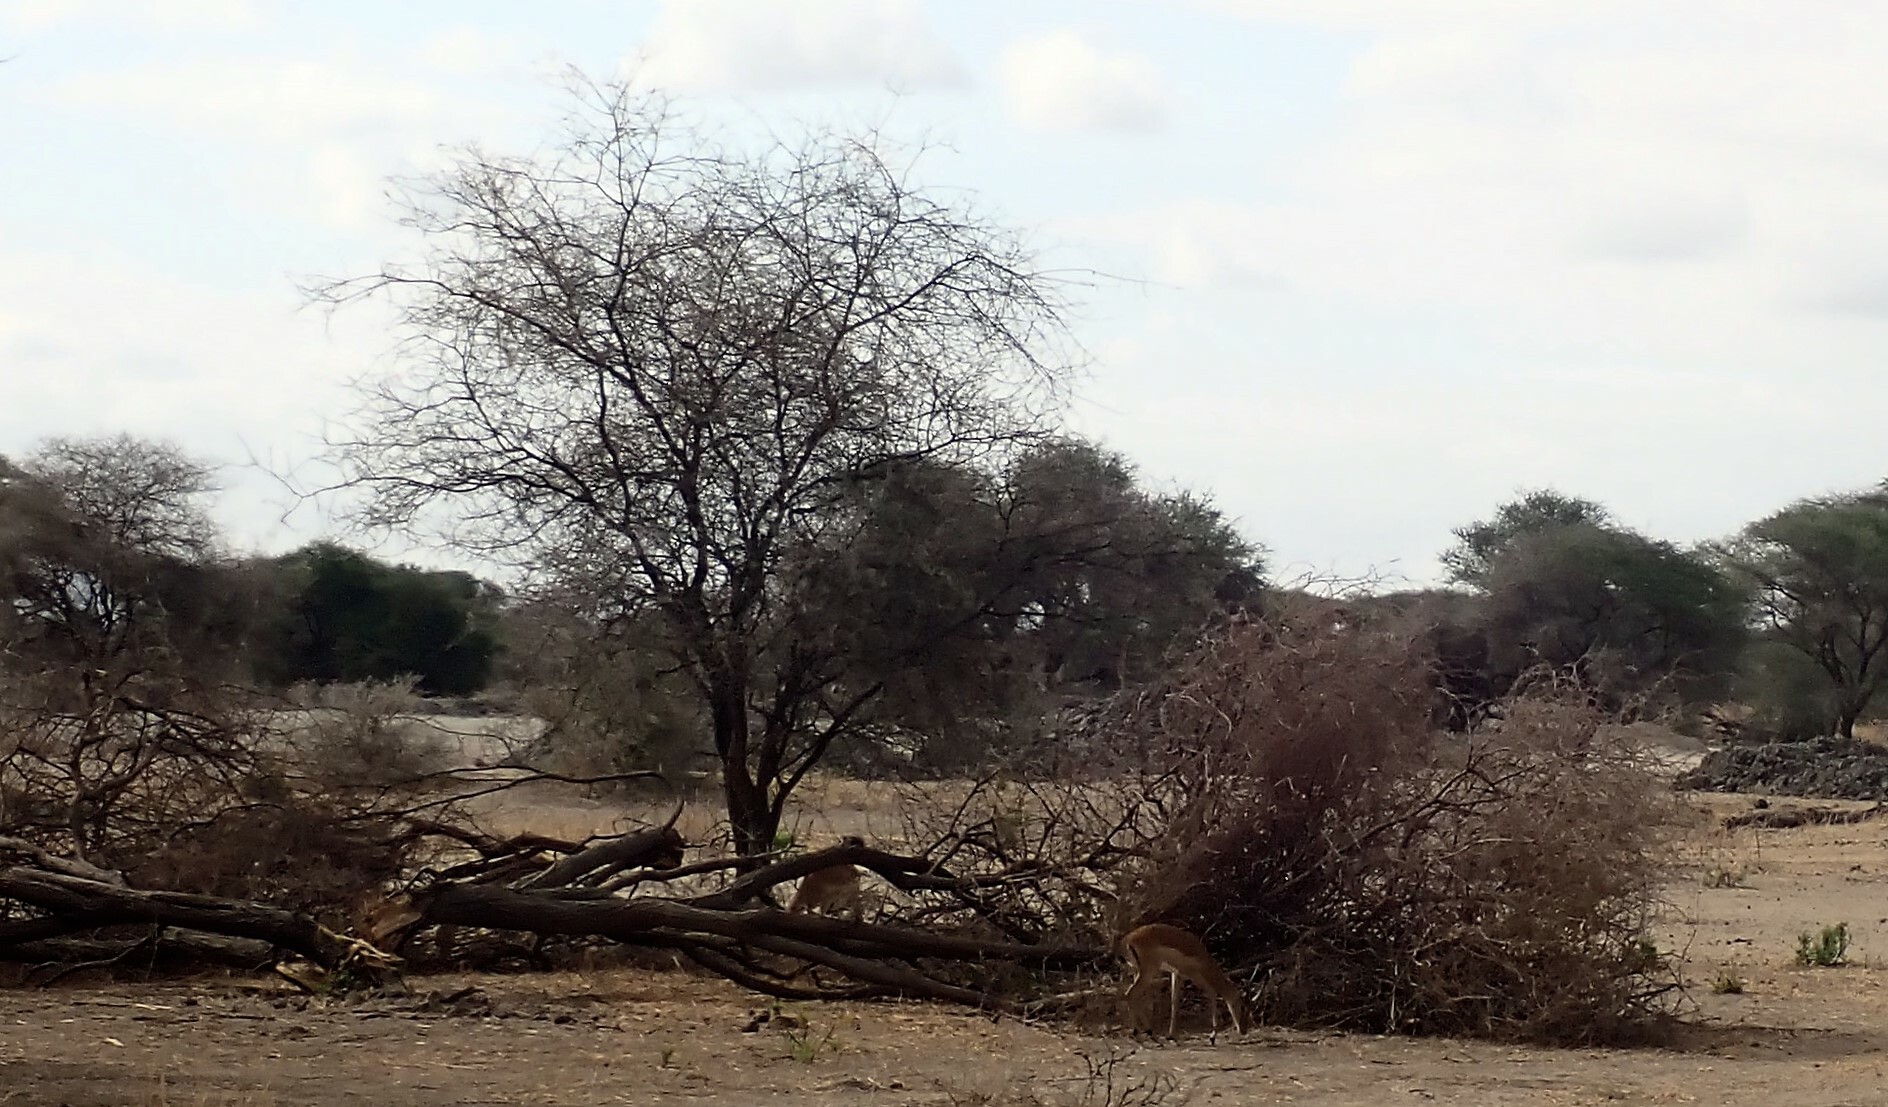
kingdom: Animalia
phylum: Chordata
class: Mammalia
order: Artiodactyla
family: Bovidae
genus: Aepyceros
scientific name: Aepyceros melampus
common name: Impala
